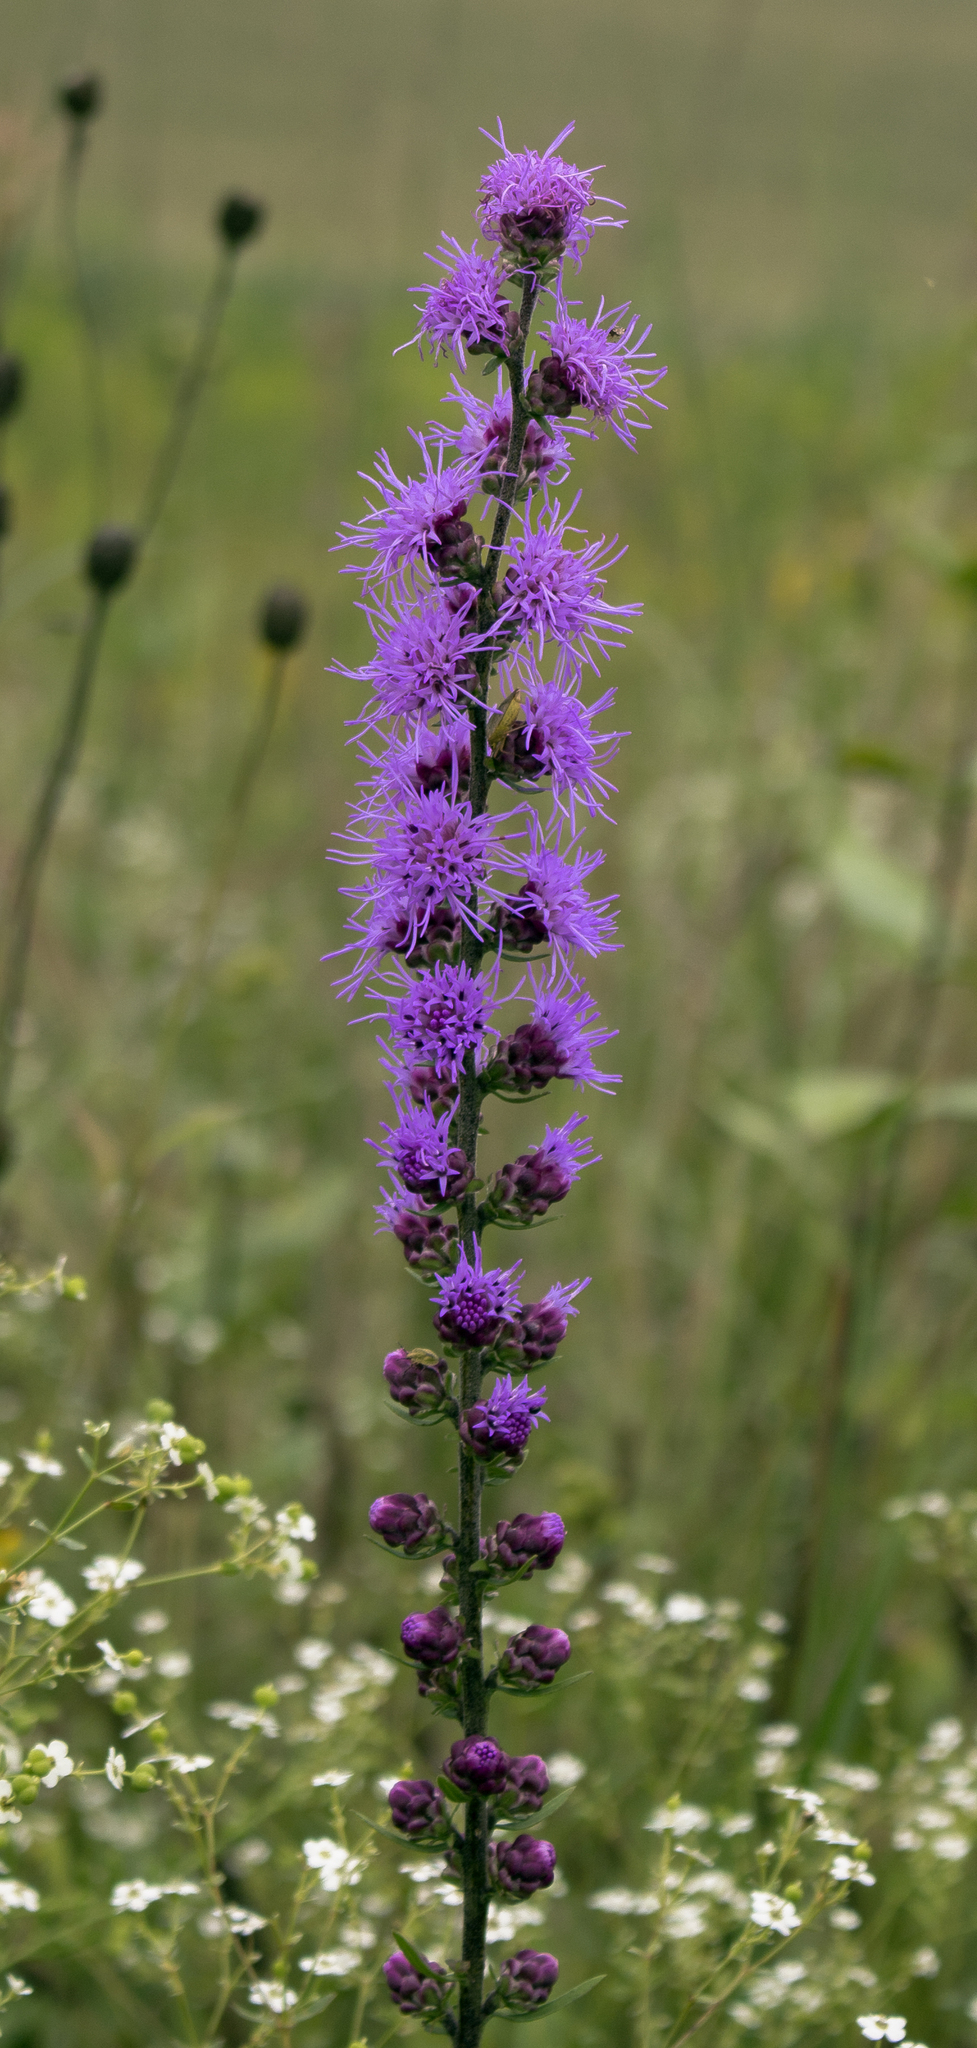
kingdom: Plantae
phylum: Tracheophyta
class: Magnoliopsida
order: Asterales
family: Asteraceae
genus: Liatris
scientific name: Liatris aspera
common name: Lacerate blazing-star
